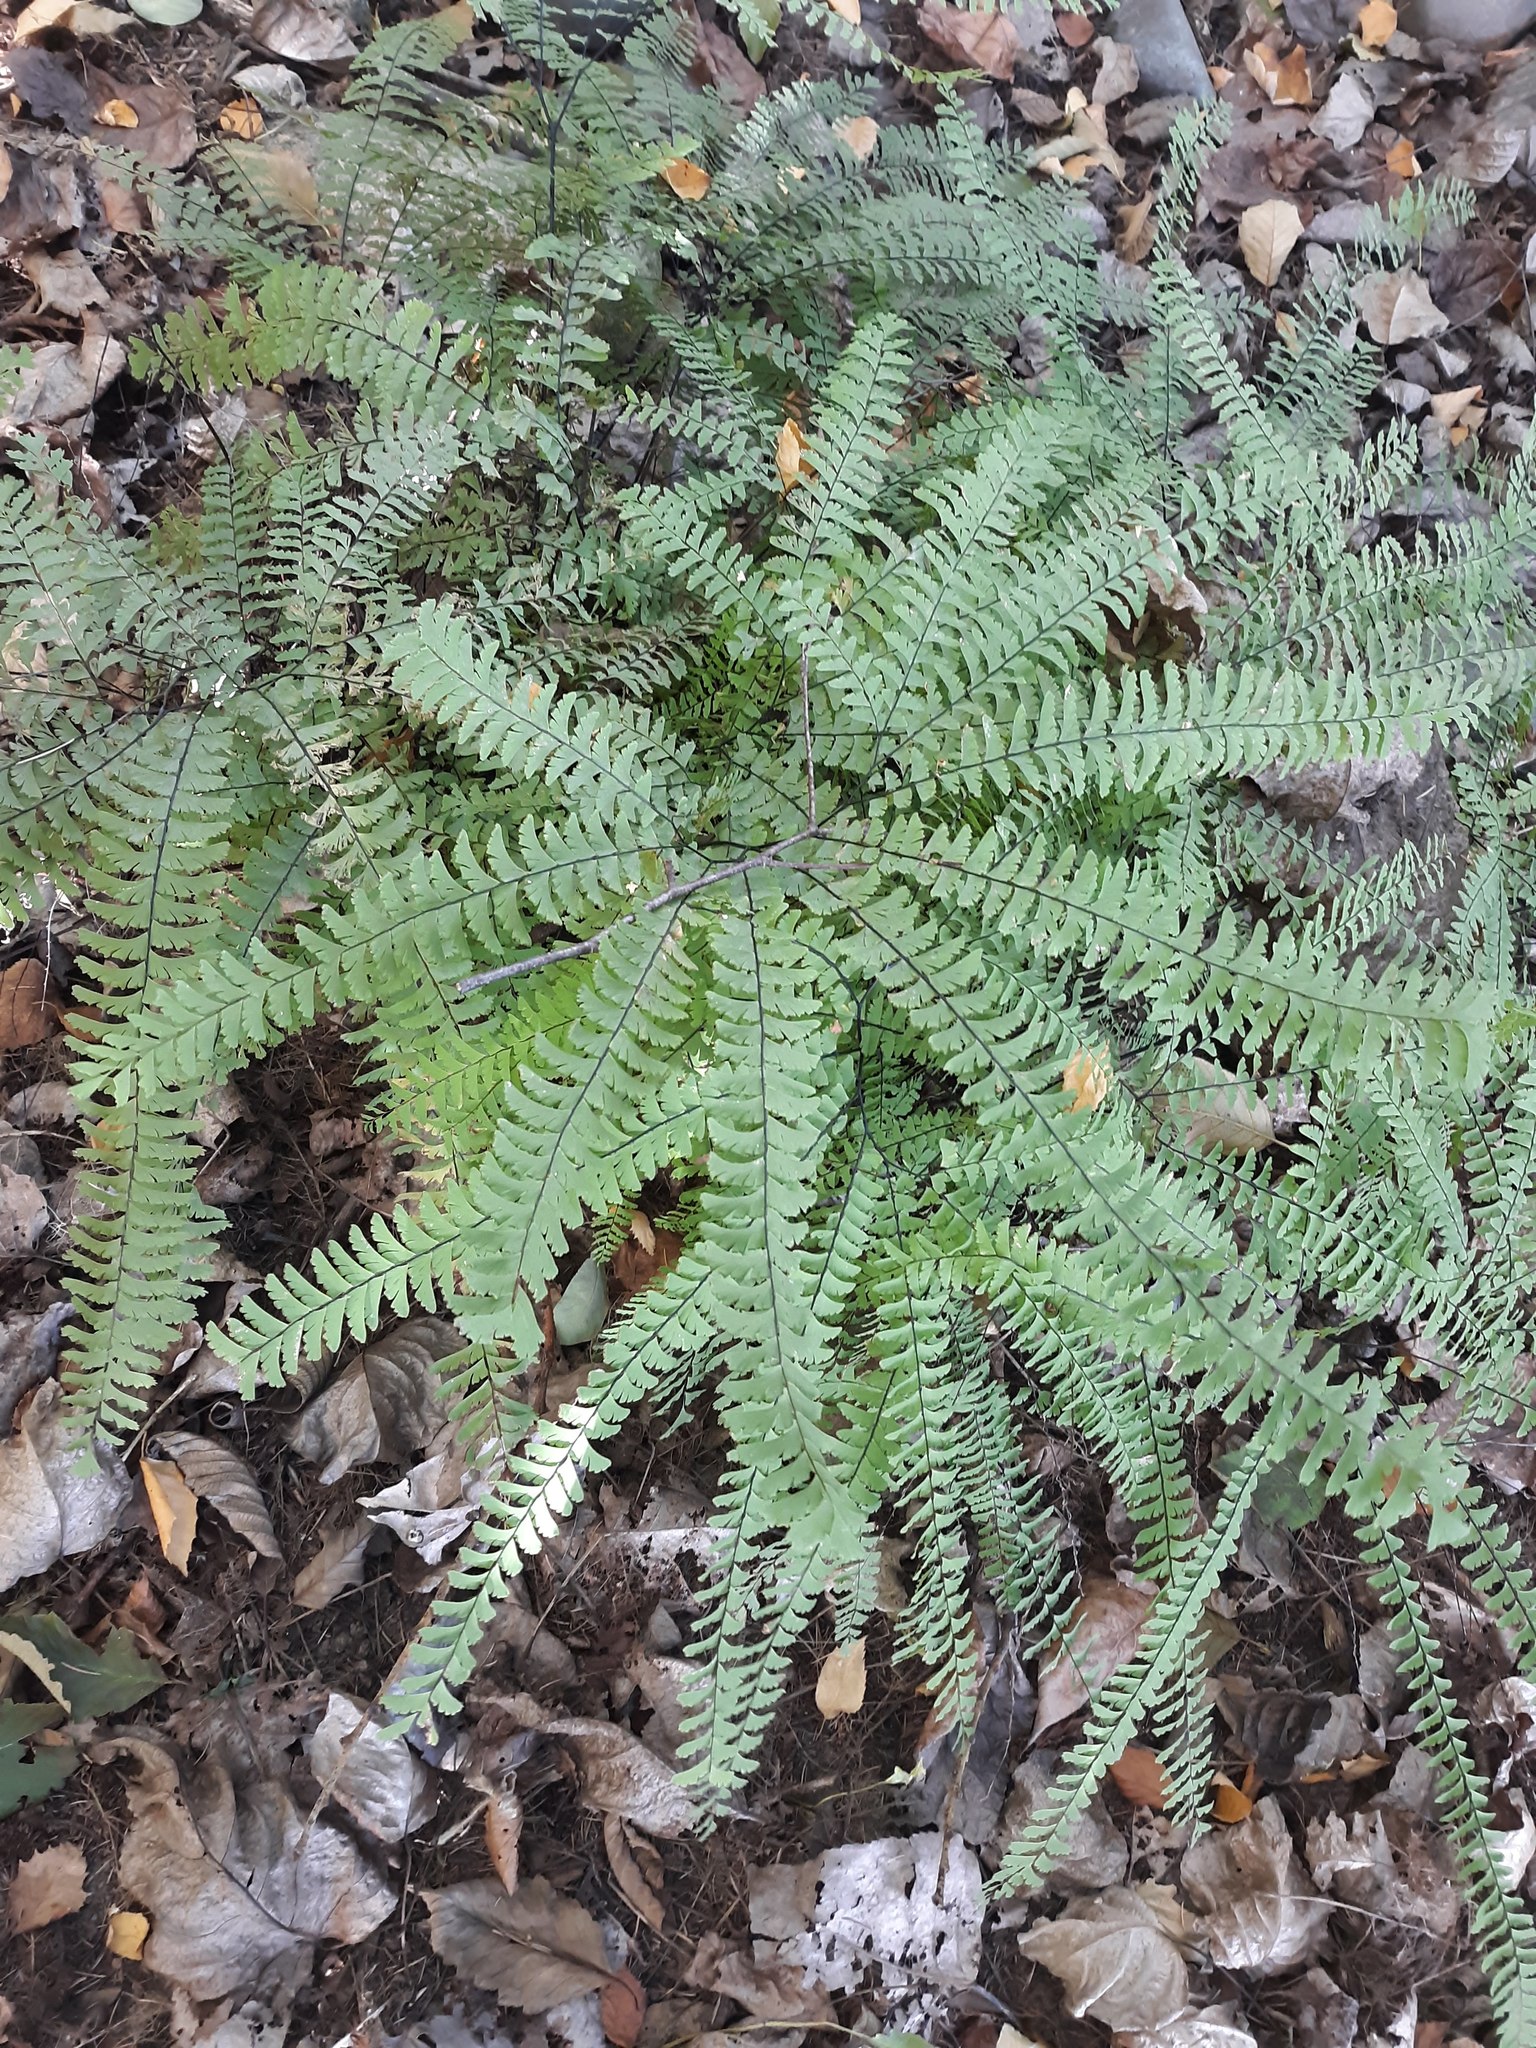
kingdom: Plantae
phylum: Tracheophyta
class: Polypodiopsida
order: Polypodiales
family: Pteridaceae
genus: Adiantum
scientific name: Adiantum aleuticum
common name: Aleutian maidenhair fern
